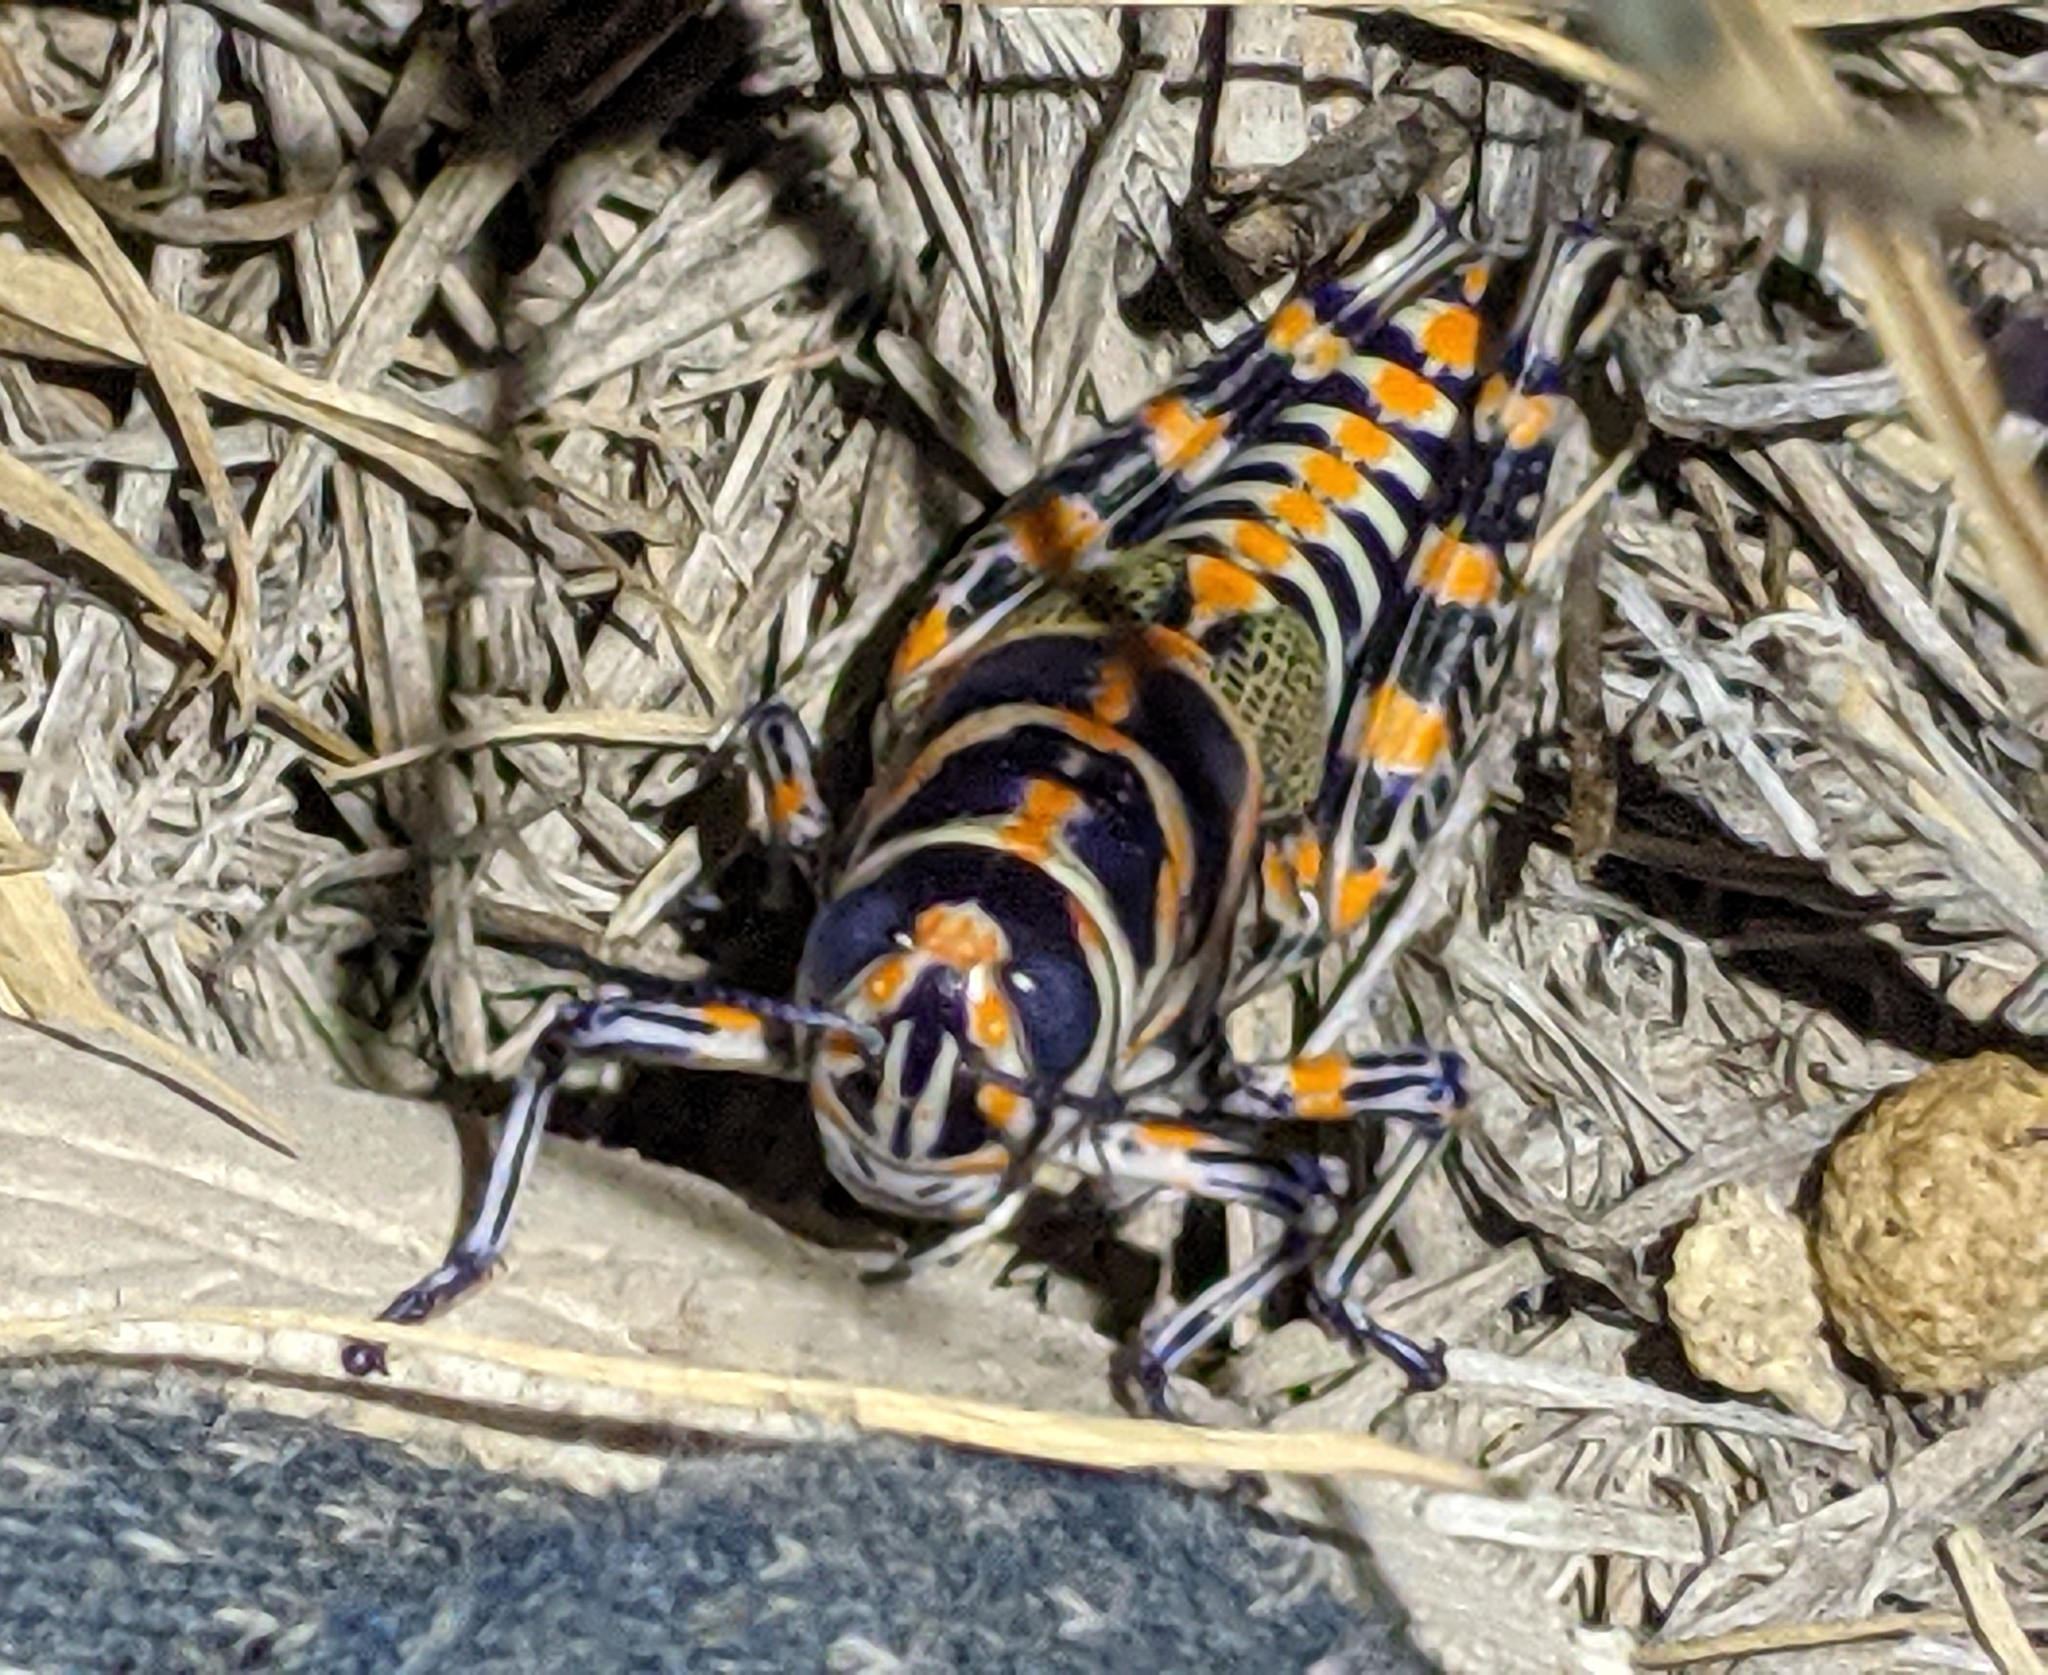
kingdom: Animalia
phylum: Arthropoda
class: Insecta
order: Orthoptera
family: Acrididae
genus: Dactylotum
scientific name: Dactylotum bicolor
